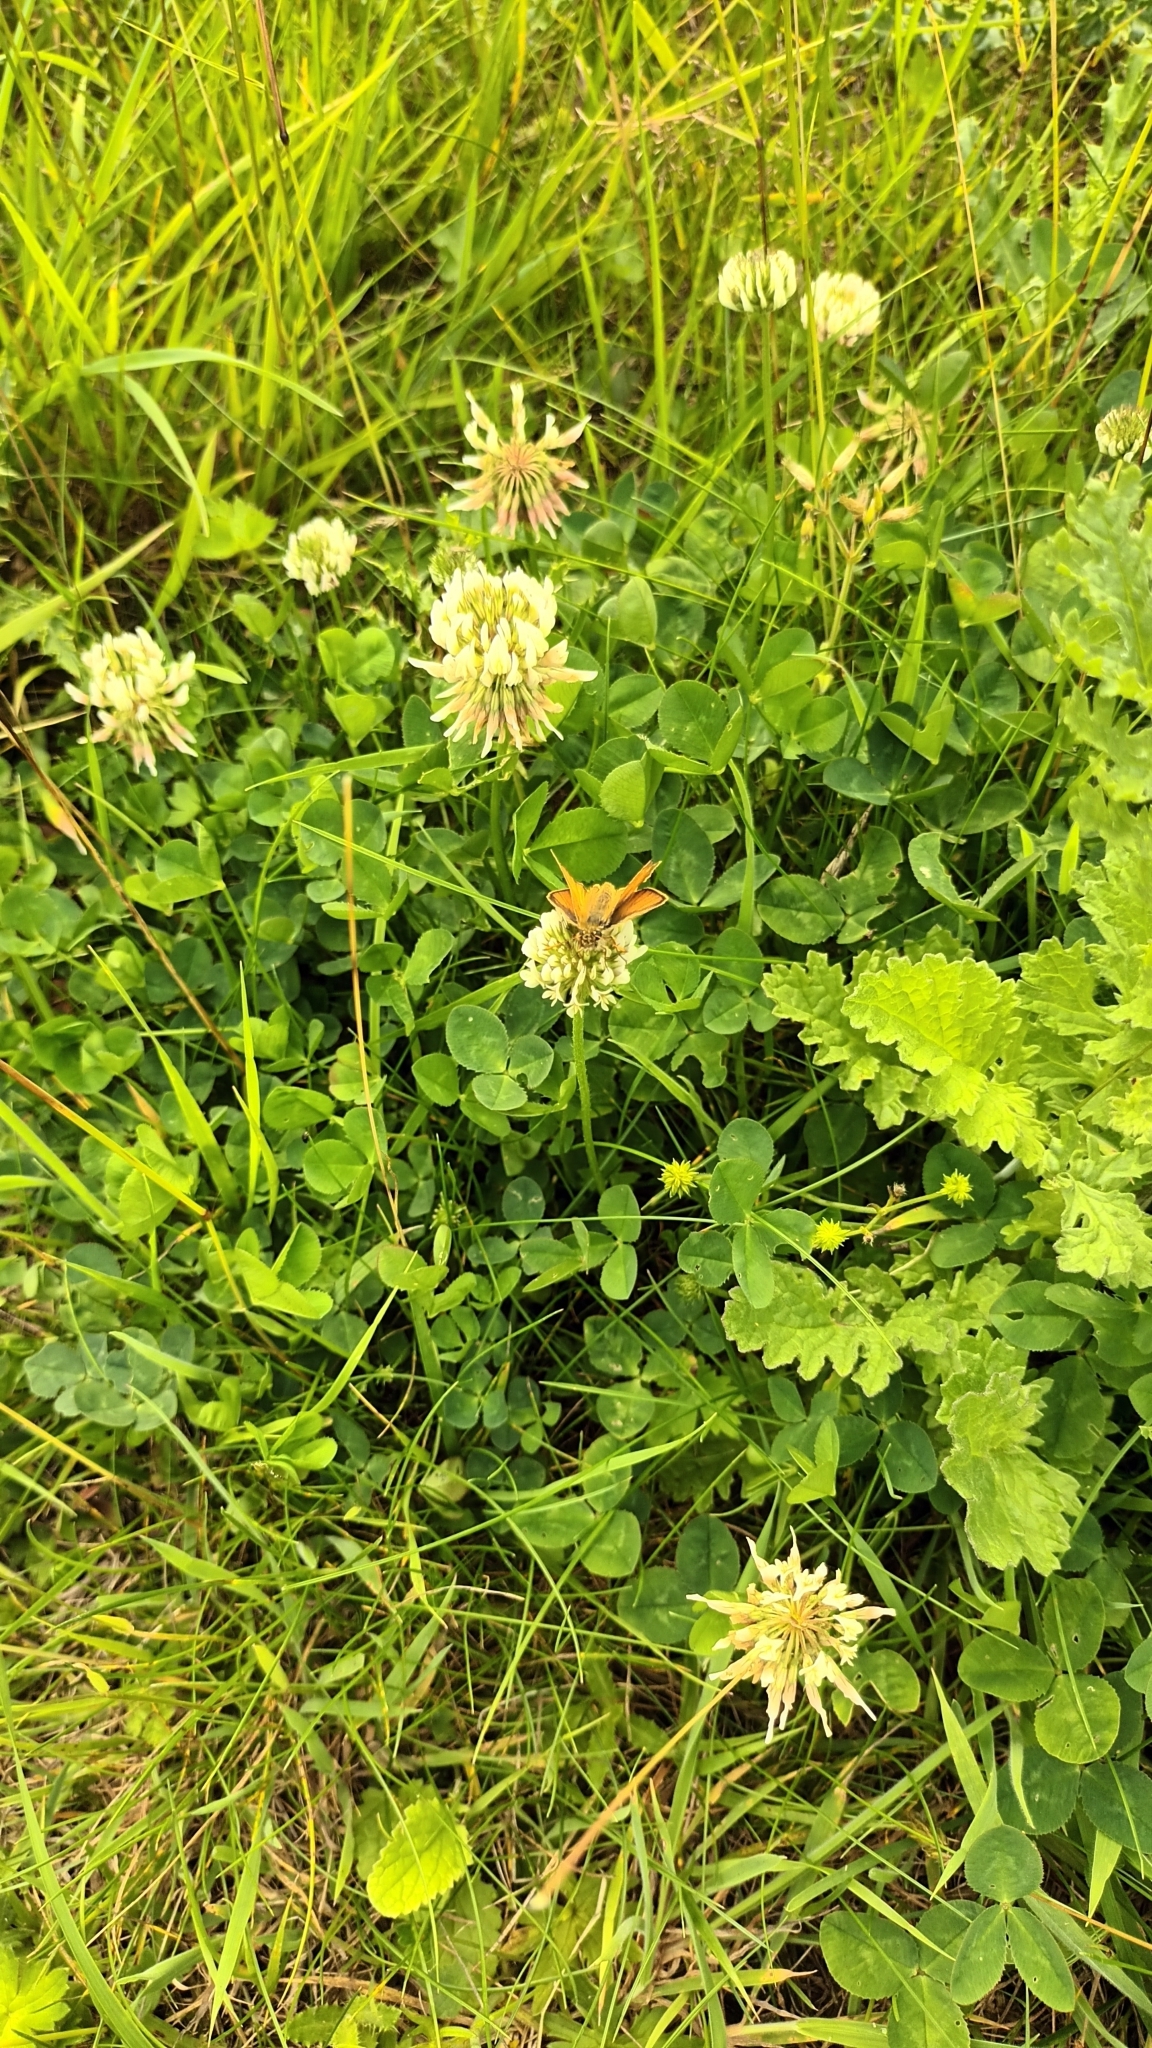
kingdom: Animalia
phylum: Arthropoda
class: Insecta
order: Lepidoptera
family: Hesperiidae
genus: Thymelicus
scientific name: Thymelicus sylvestris
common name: Small skipper
